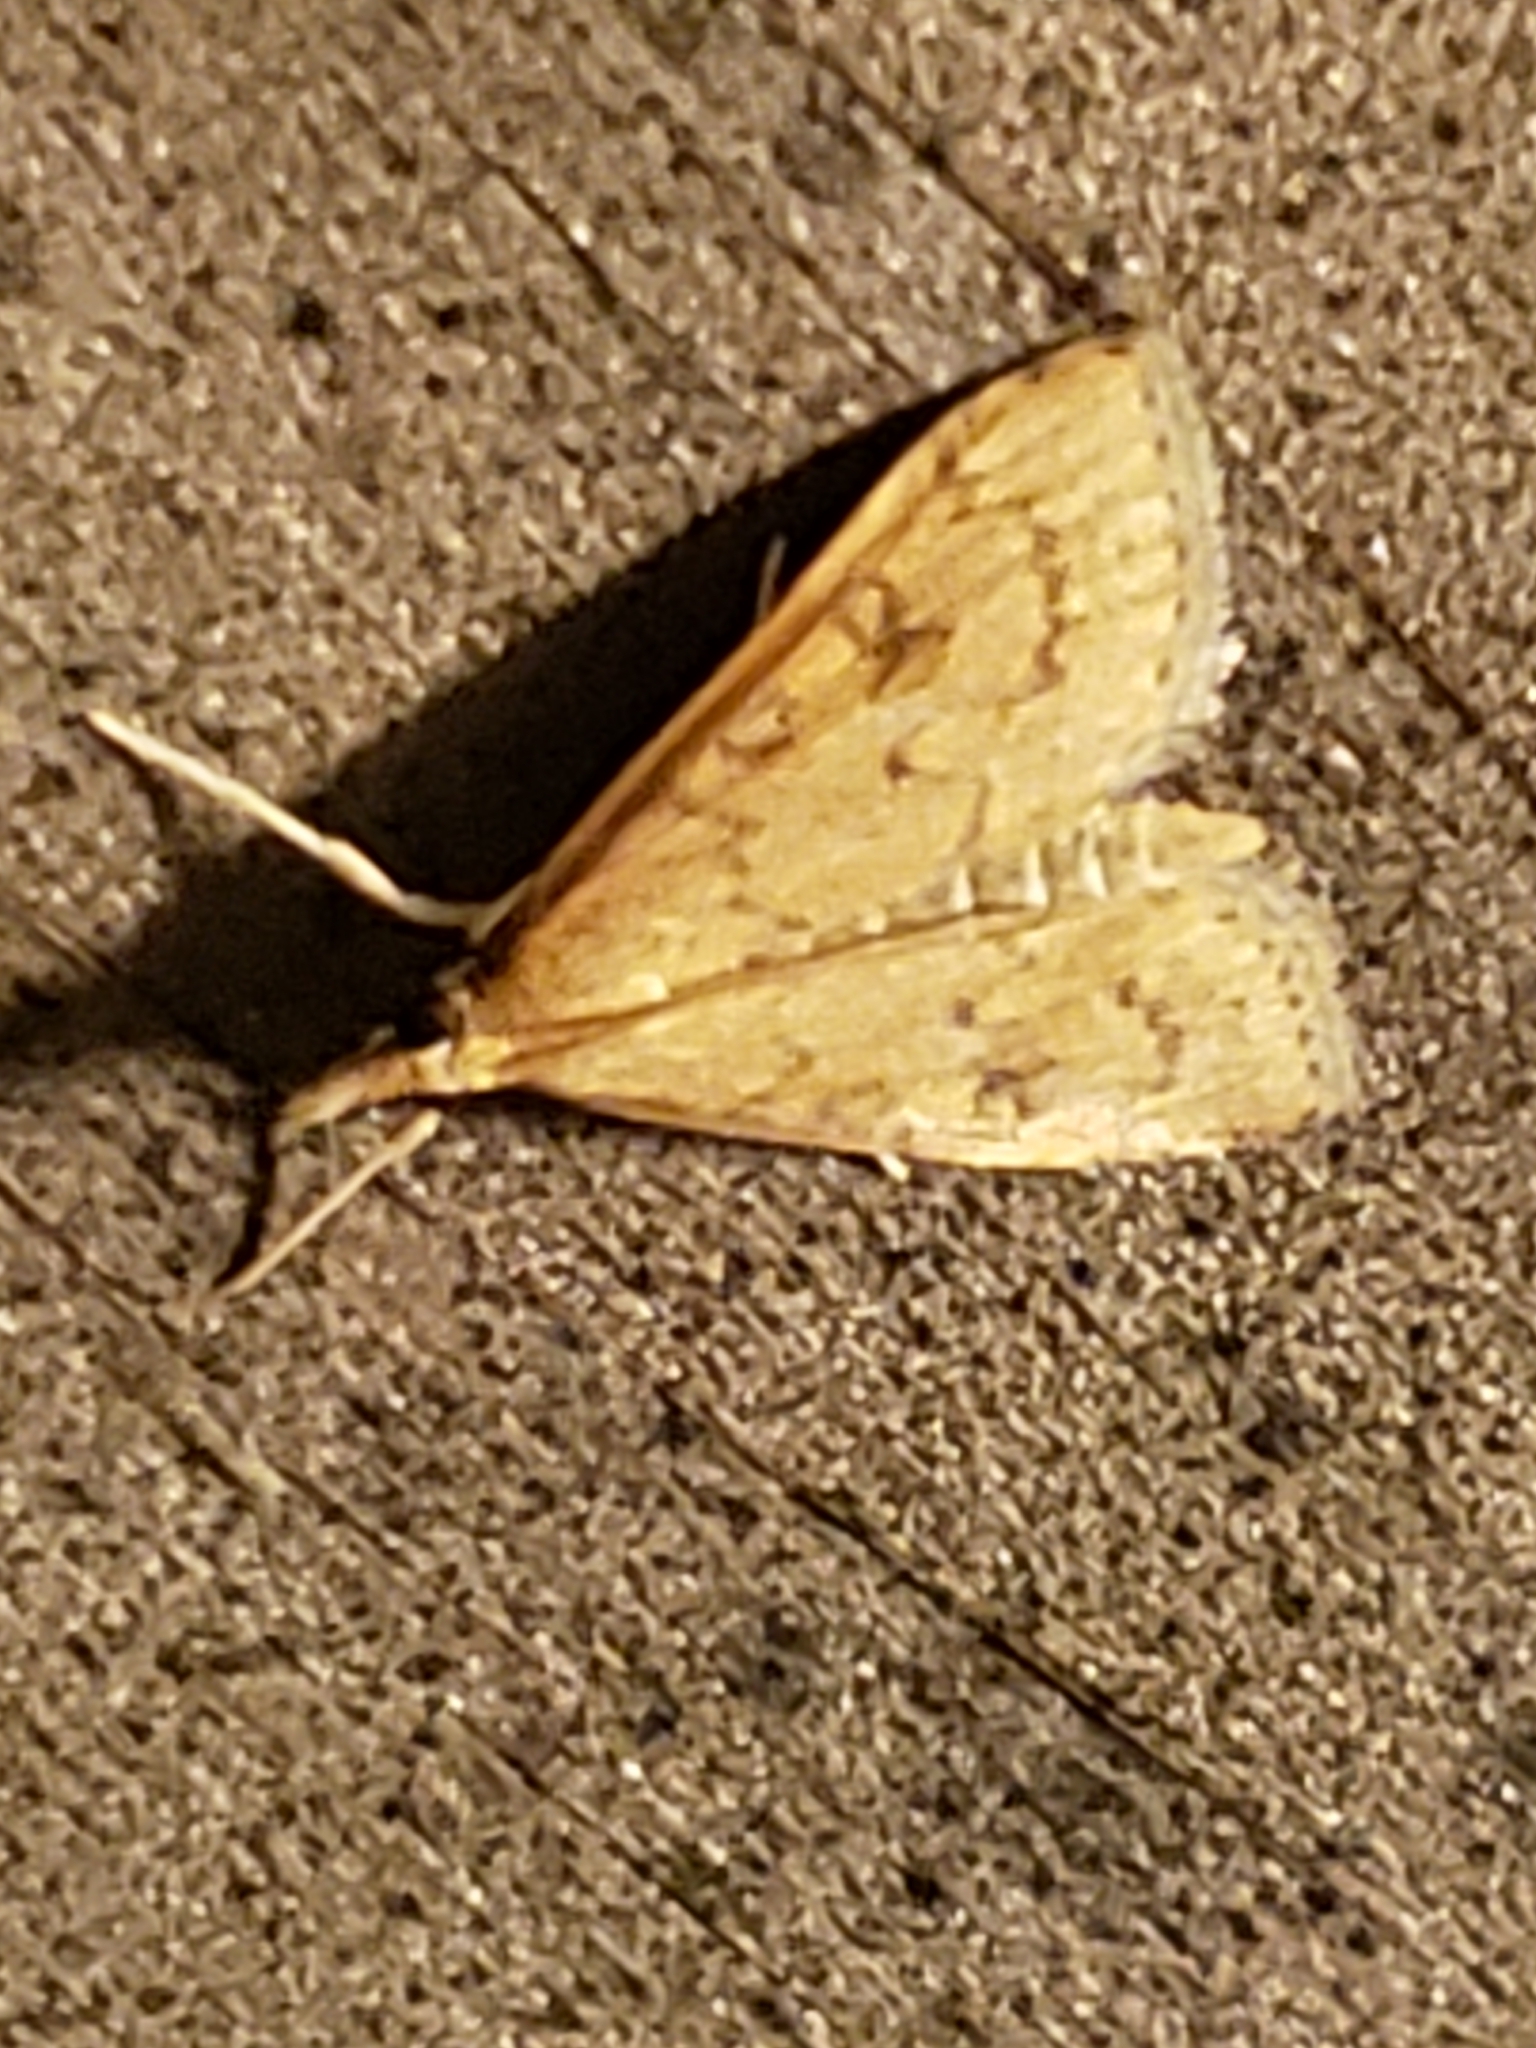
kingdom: Animalia
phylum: Arthropoda
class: Insecta
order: Lepidoptera
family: Crambidae
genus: Udea
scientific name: Udea rubigalis
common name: Celery leaftier moth
